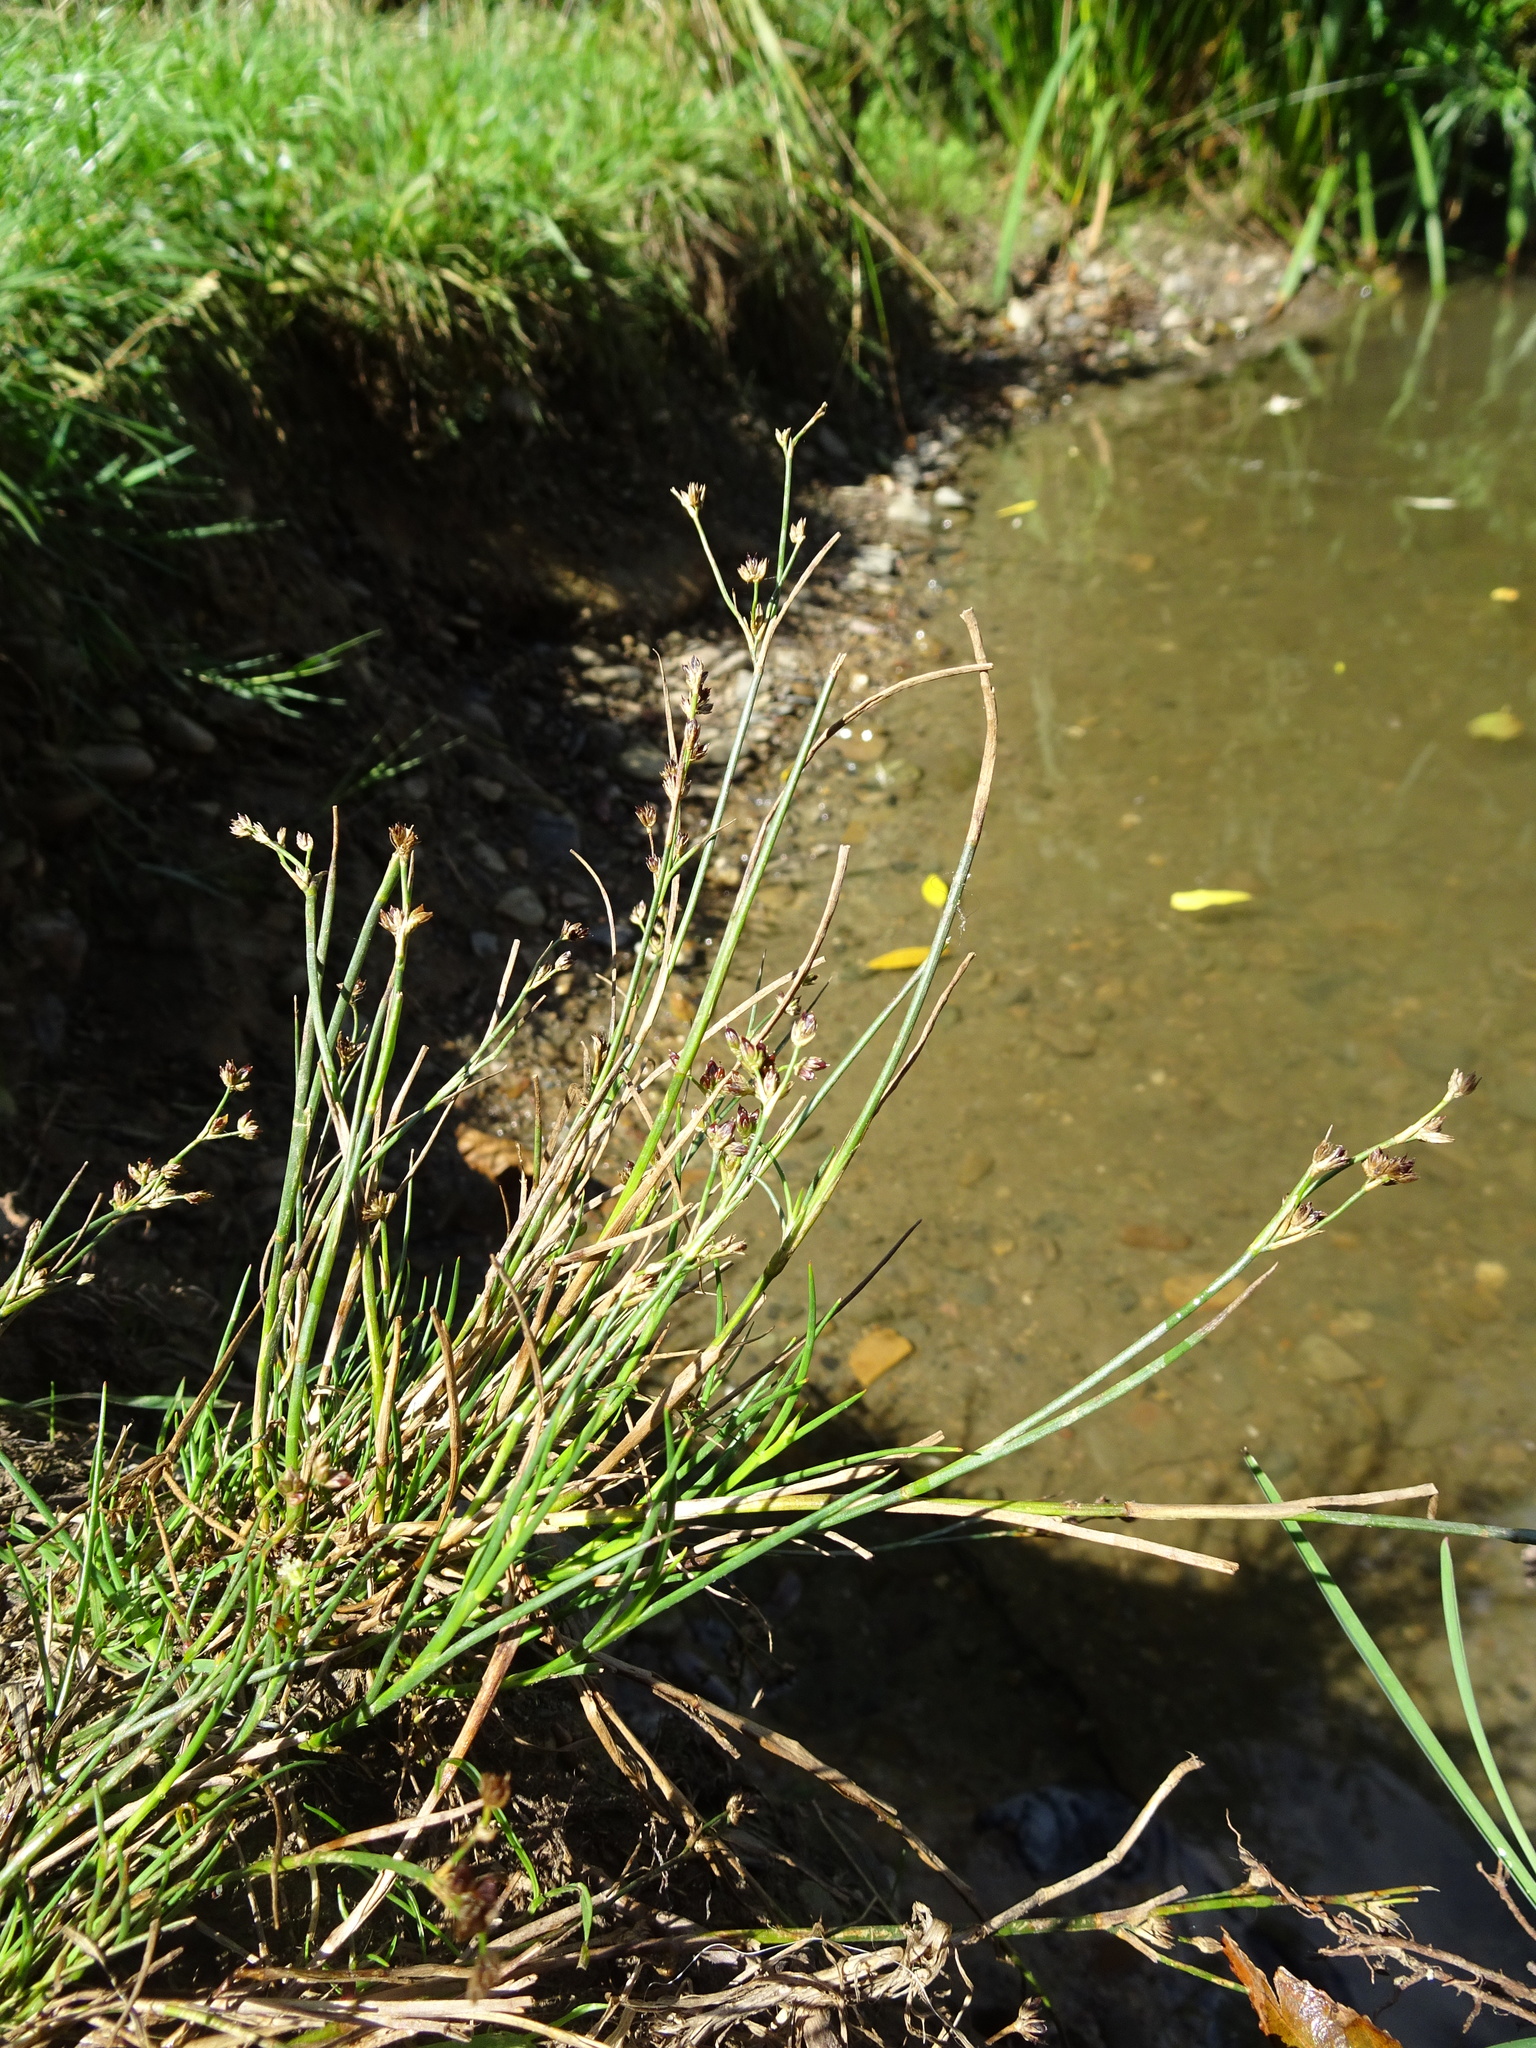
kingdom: Plantae
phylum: Tracheophyta
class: Liliopsida
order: Poales
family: Juncaceae
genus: Juncus
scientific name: Juncus tenuis
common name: Slender rush
